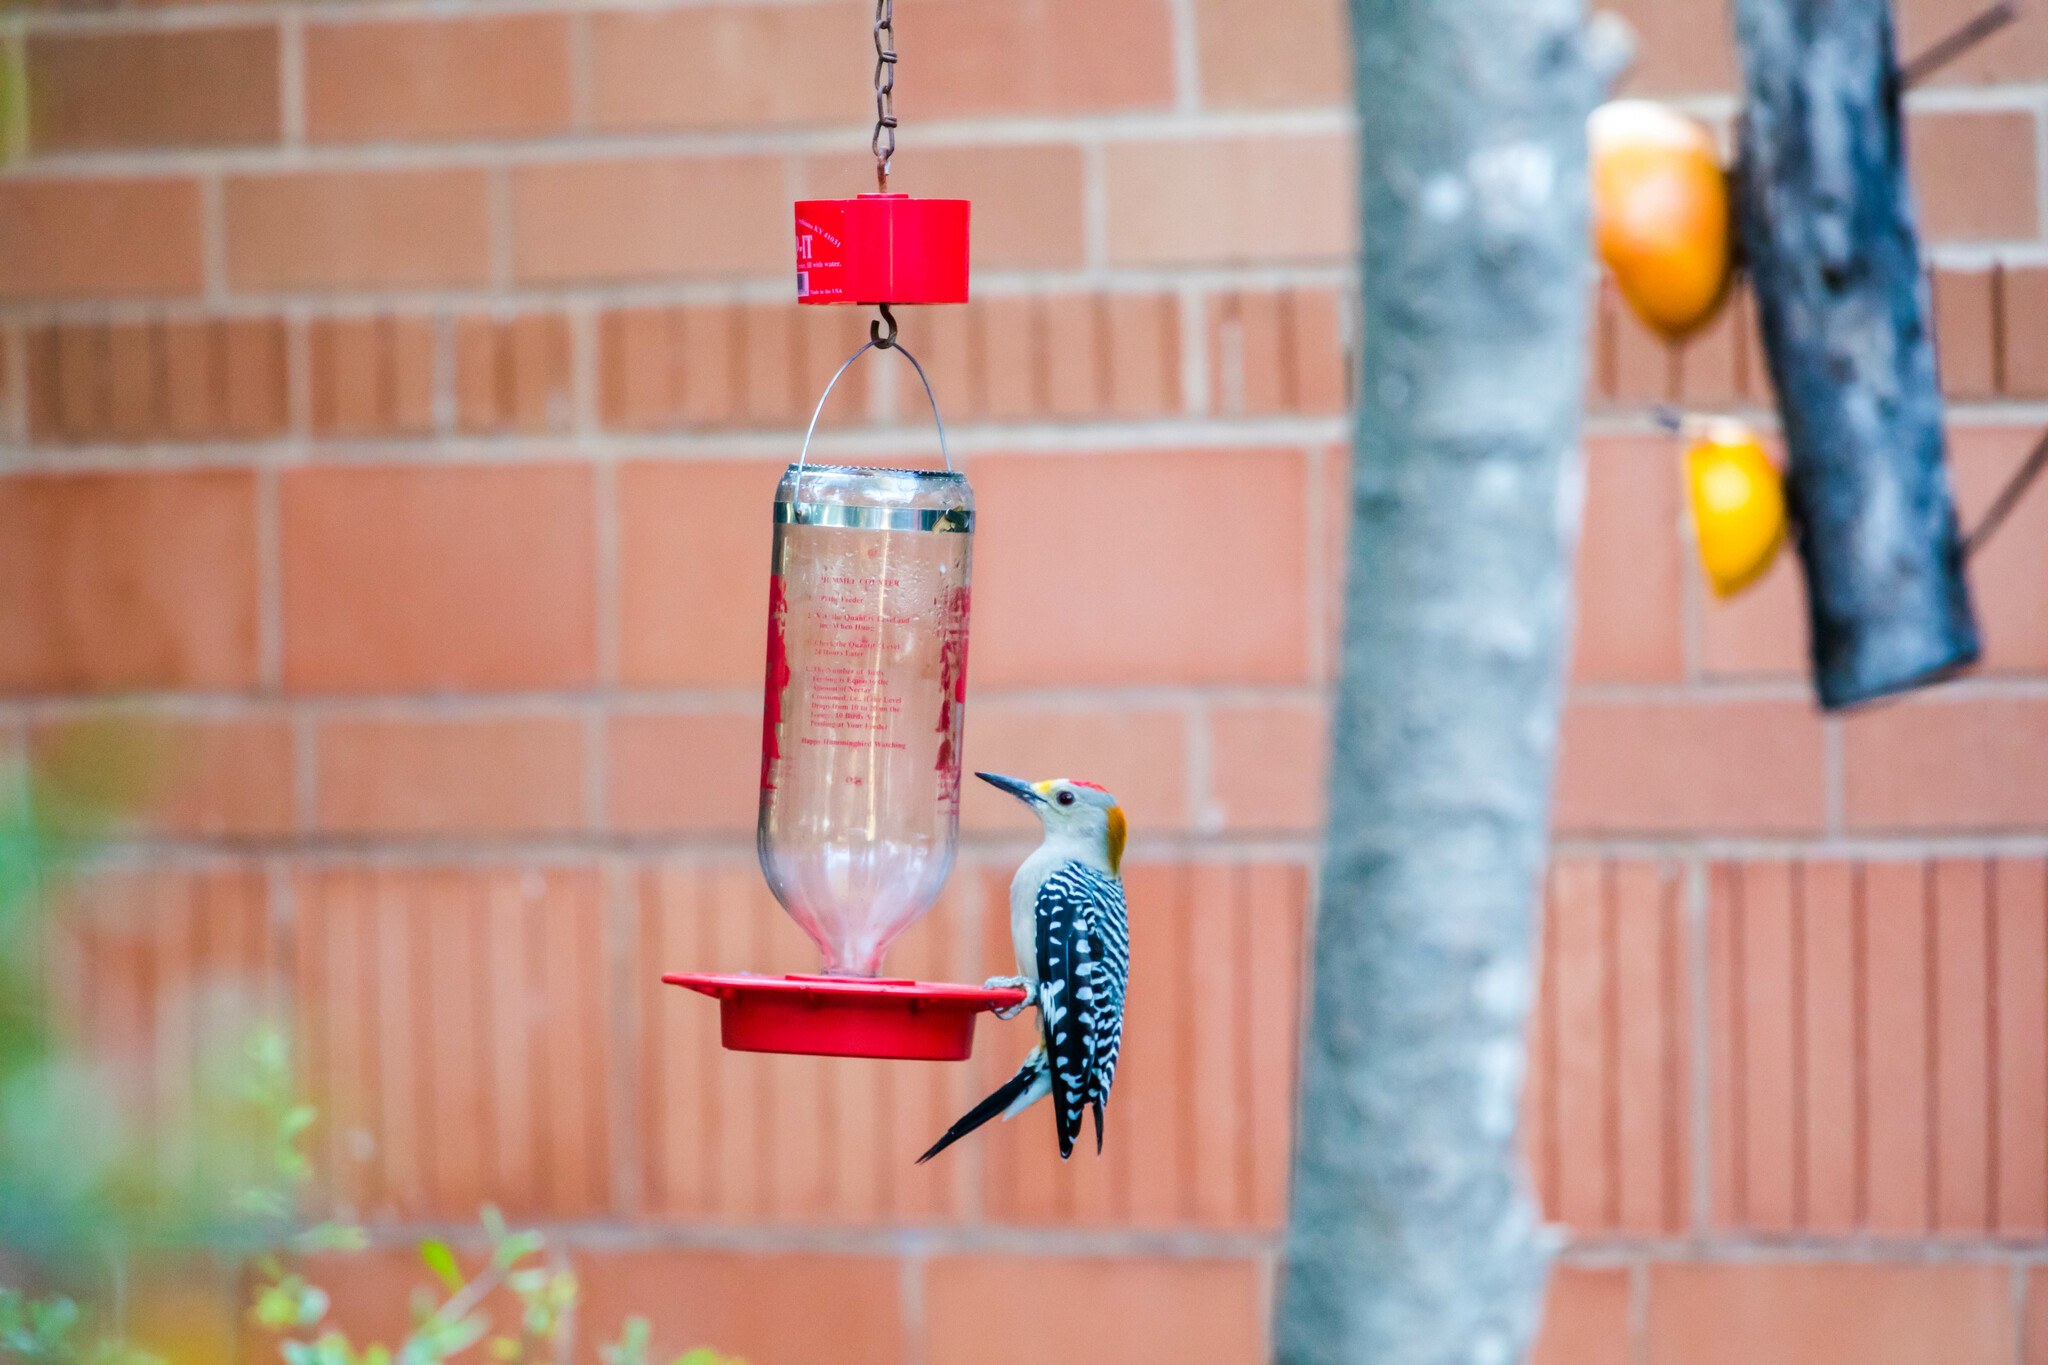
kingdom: Animalia
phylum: Chordata
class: Aves
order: Piciformes
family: Picidae
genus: Melanerpes
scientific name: Melanerpes aurifrons
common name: Golden-fronted woodpecker
